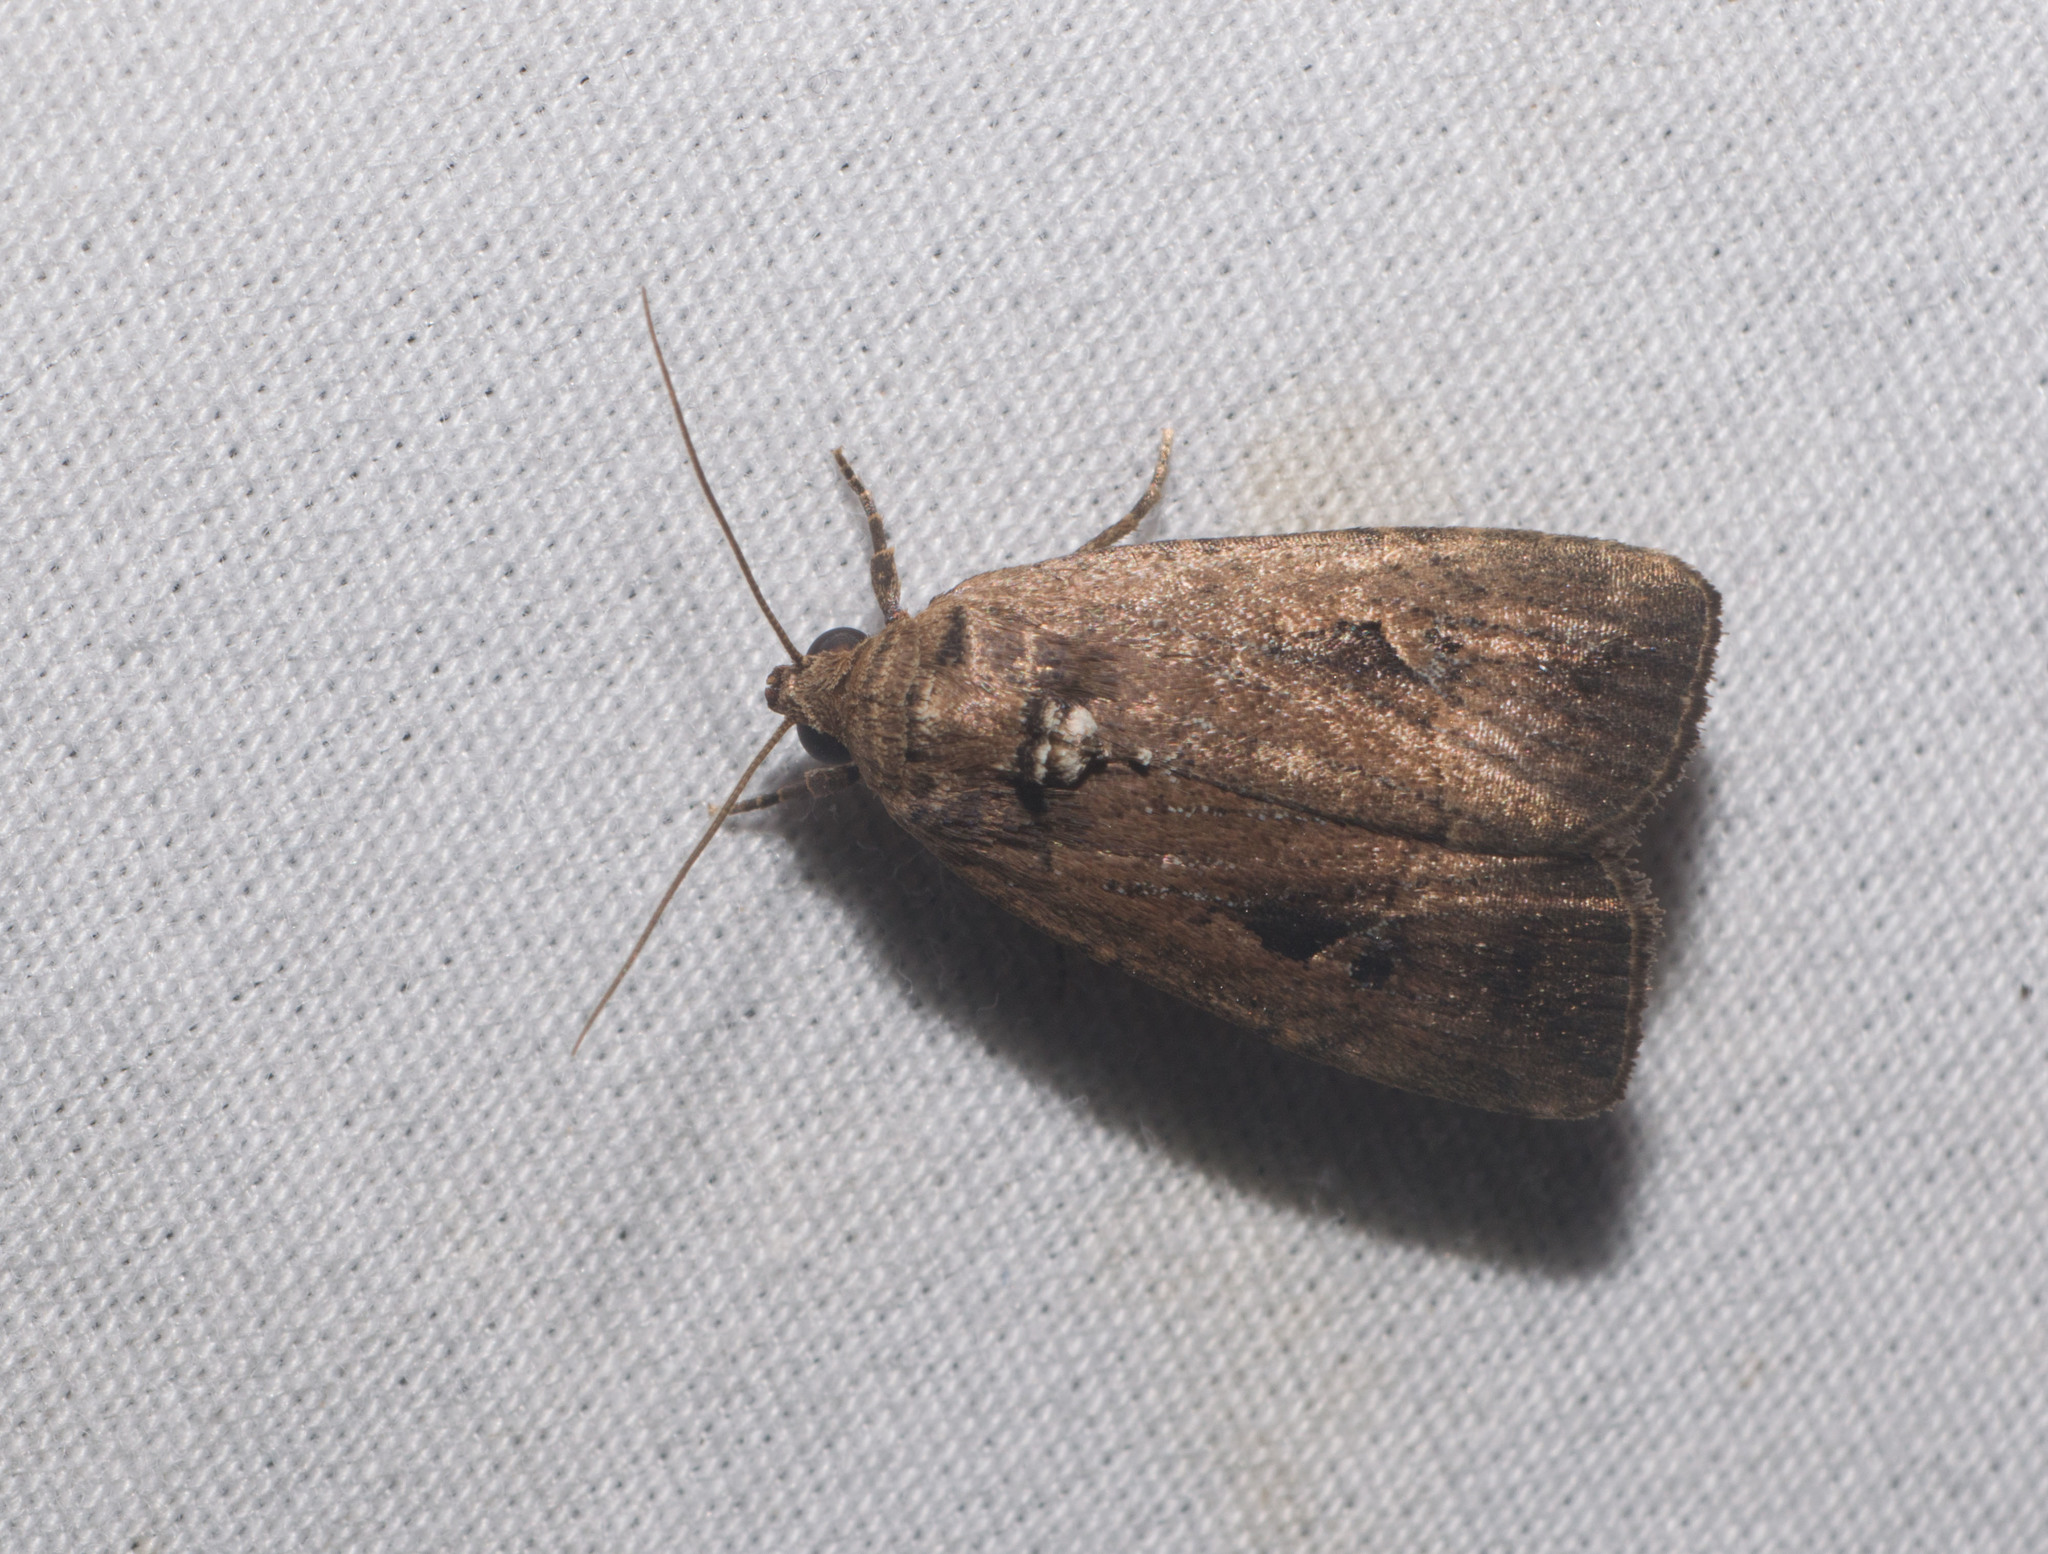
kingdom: Animalia
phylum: Arthropoda
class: Insecta
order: Lepidoptera
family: Noctuidae
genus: Elaphria
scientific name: Elaphria nucicolora
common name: Sugarcane midget moth
